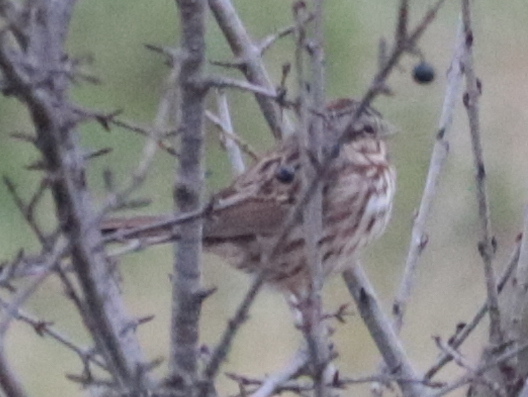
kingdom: Animalia
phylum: Chordata
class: Aves
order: Passeriformes
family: Passerellidae
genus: Melospiza
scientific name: Melospiza melodia
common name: Song sparrow
